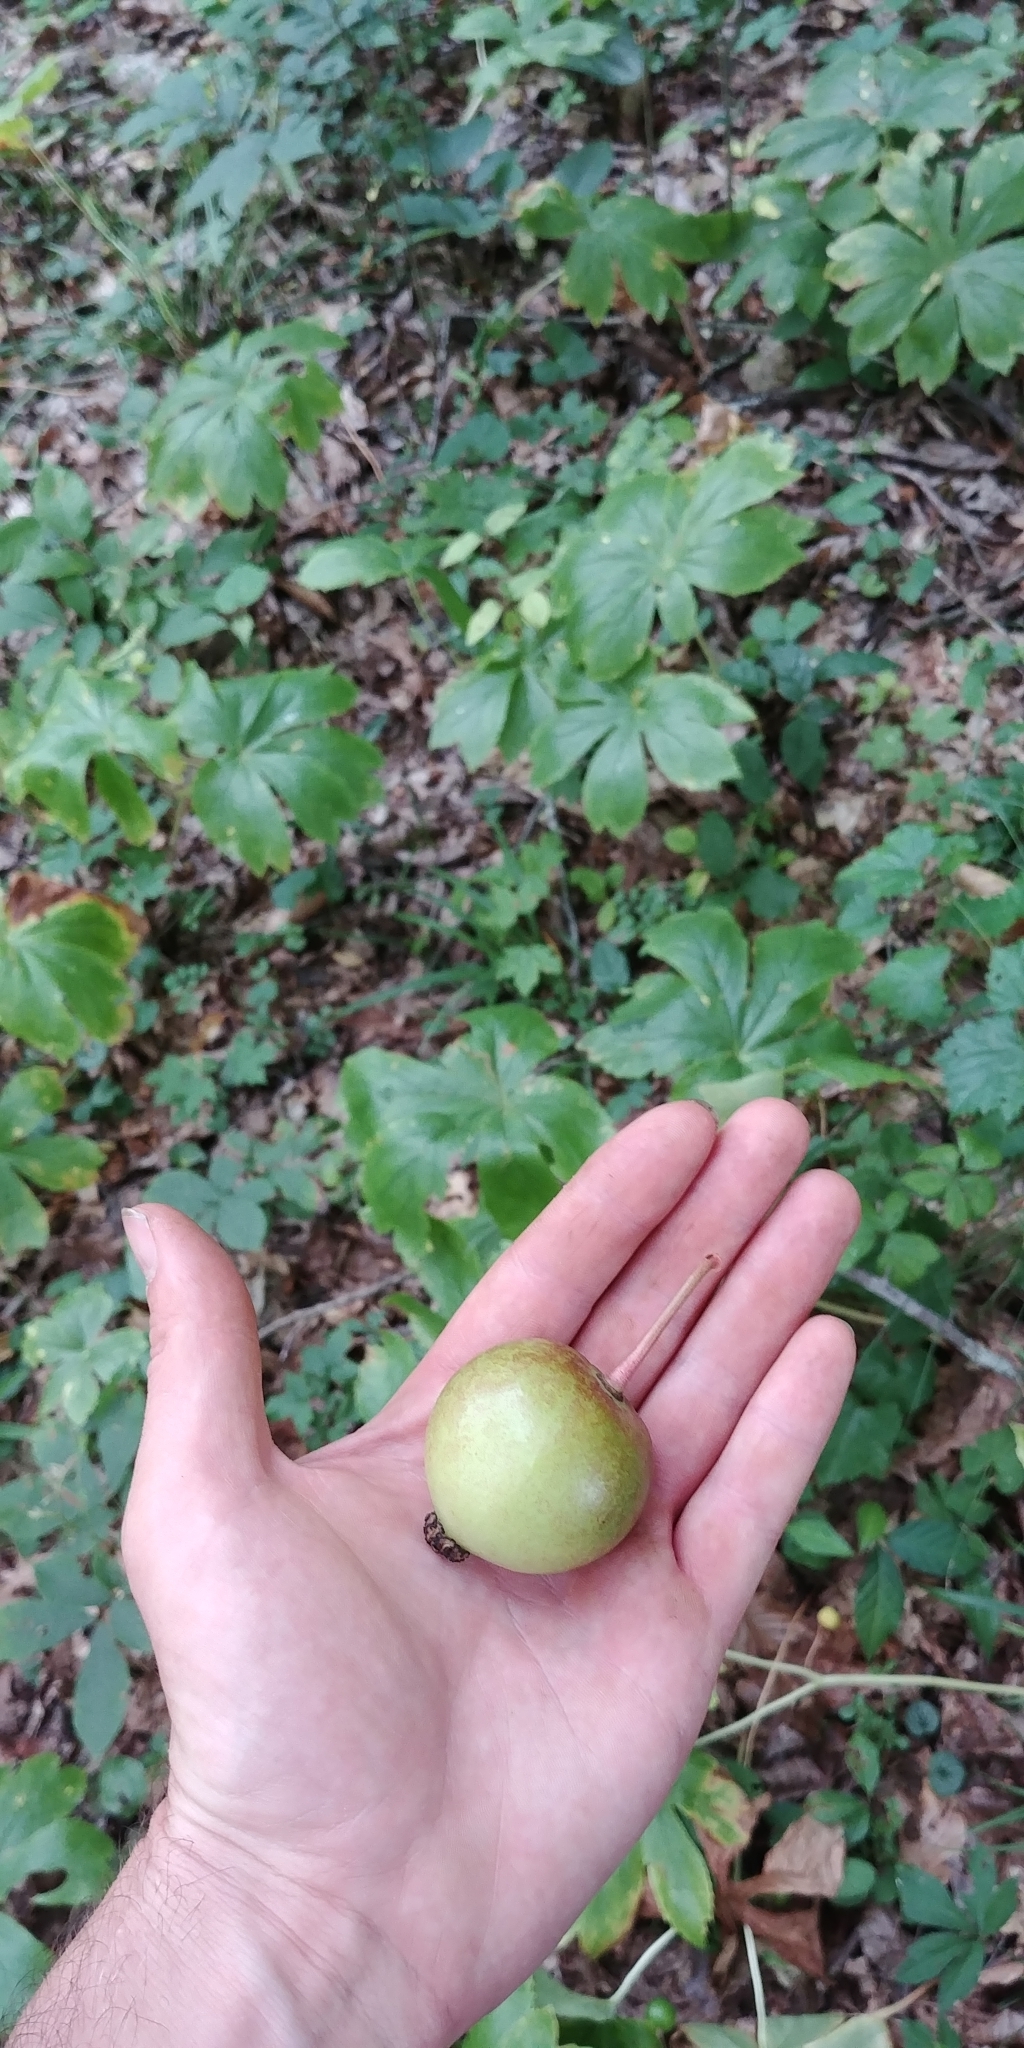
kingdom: Plantae
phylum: Tracheophyta
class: Magnoliopsida
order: Ranunculales
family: Berberidaceae
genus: Podophyllum
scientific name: Podophyllum peltatum
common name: Wild mandrake
